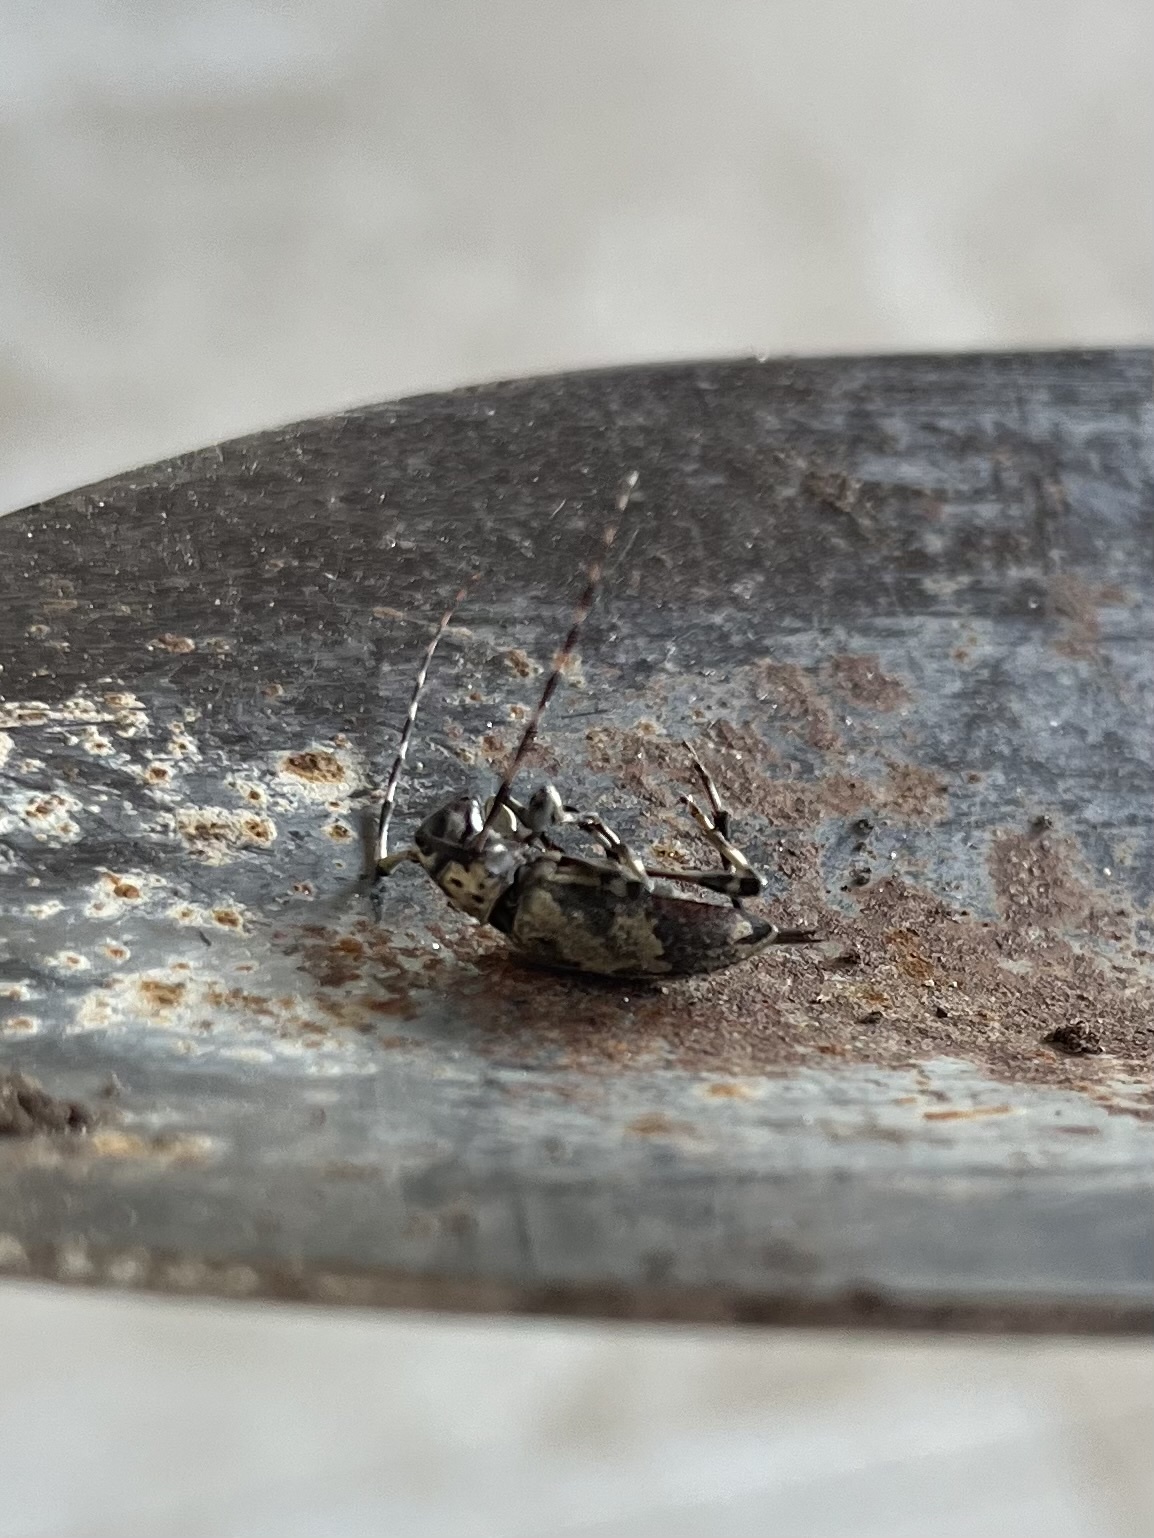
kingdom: Animalia
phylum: Arthropoda
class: Insecta
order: Coleoptera
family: Cerambycidae
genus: Graphisurus
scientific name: Graphisurus triangulifer
